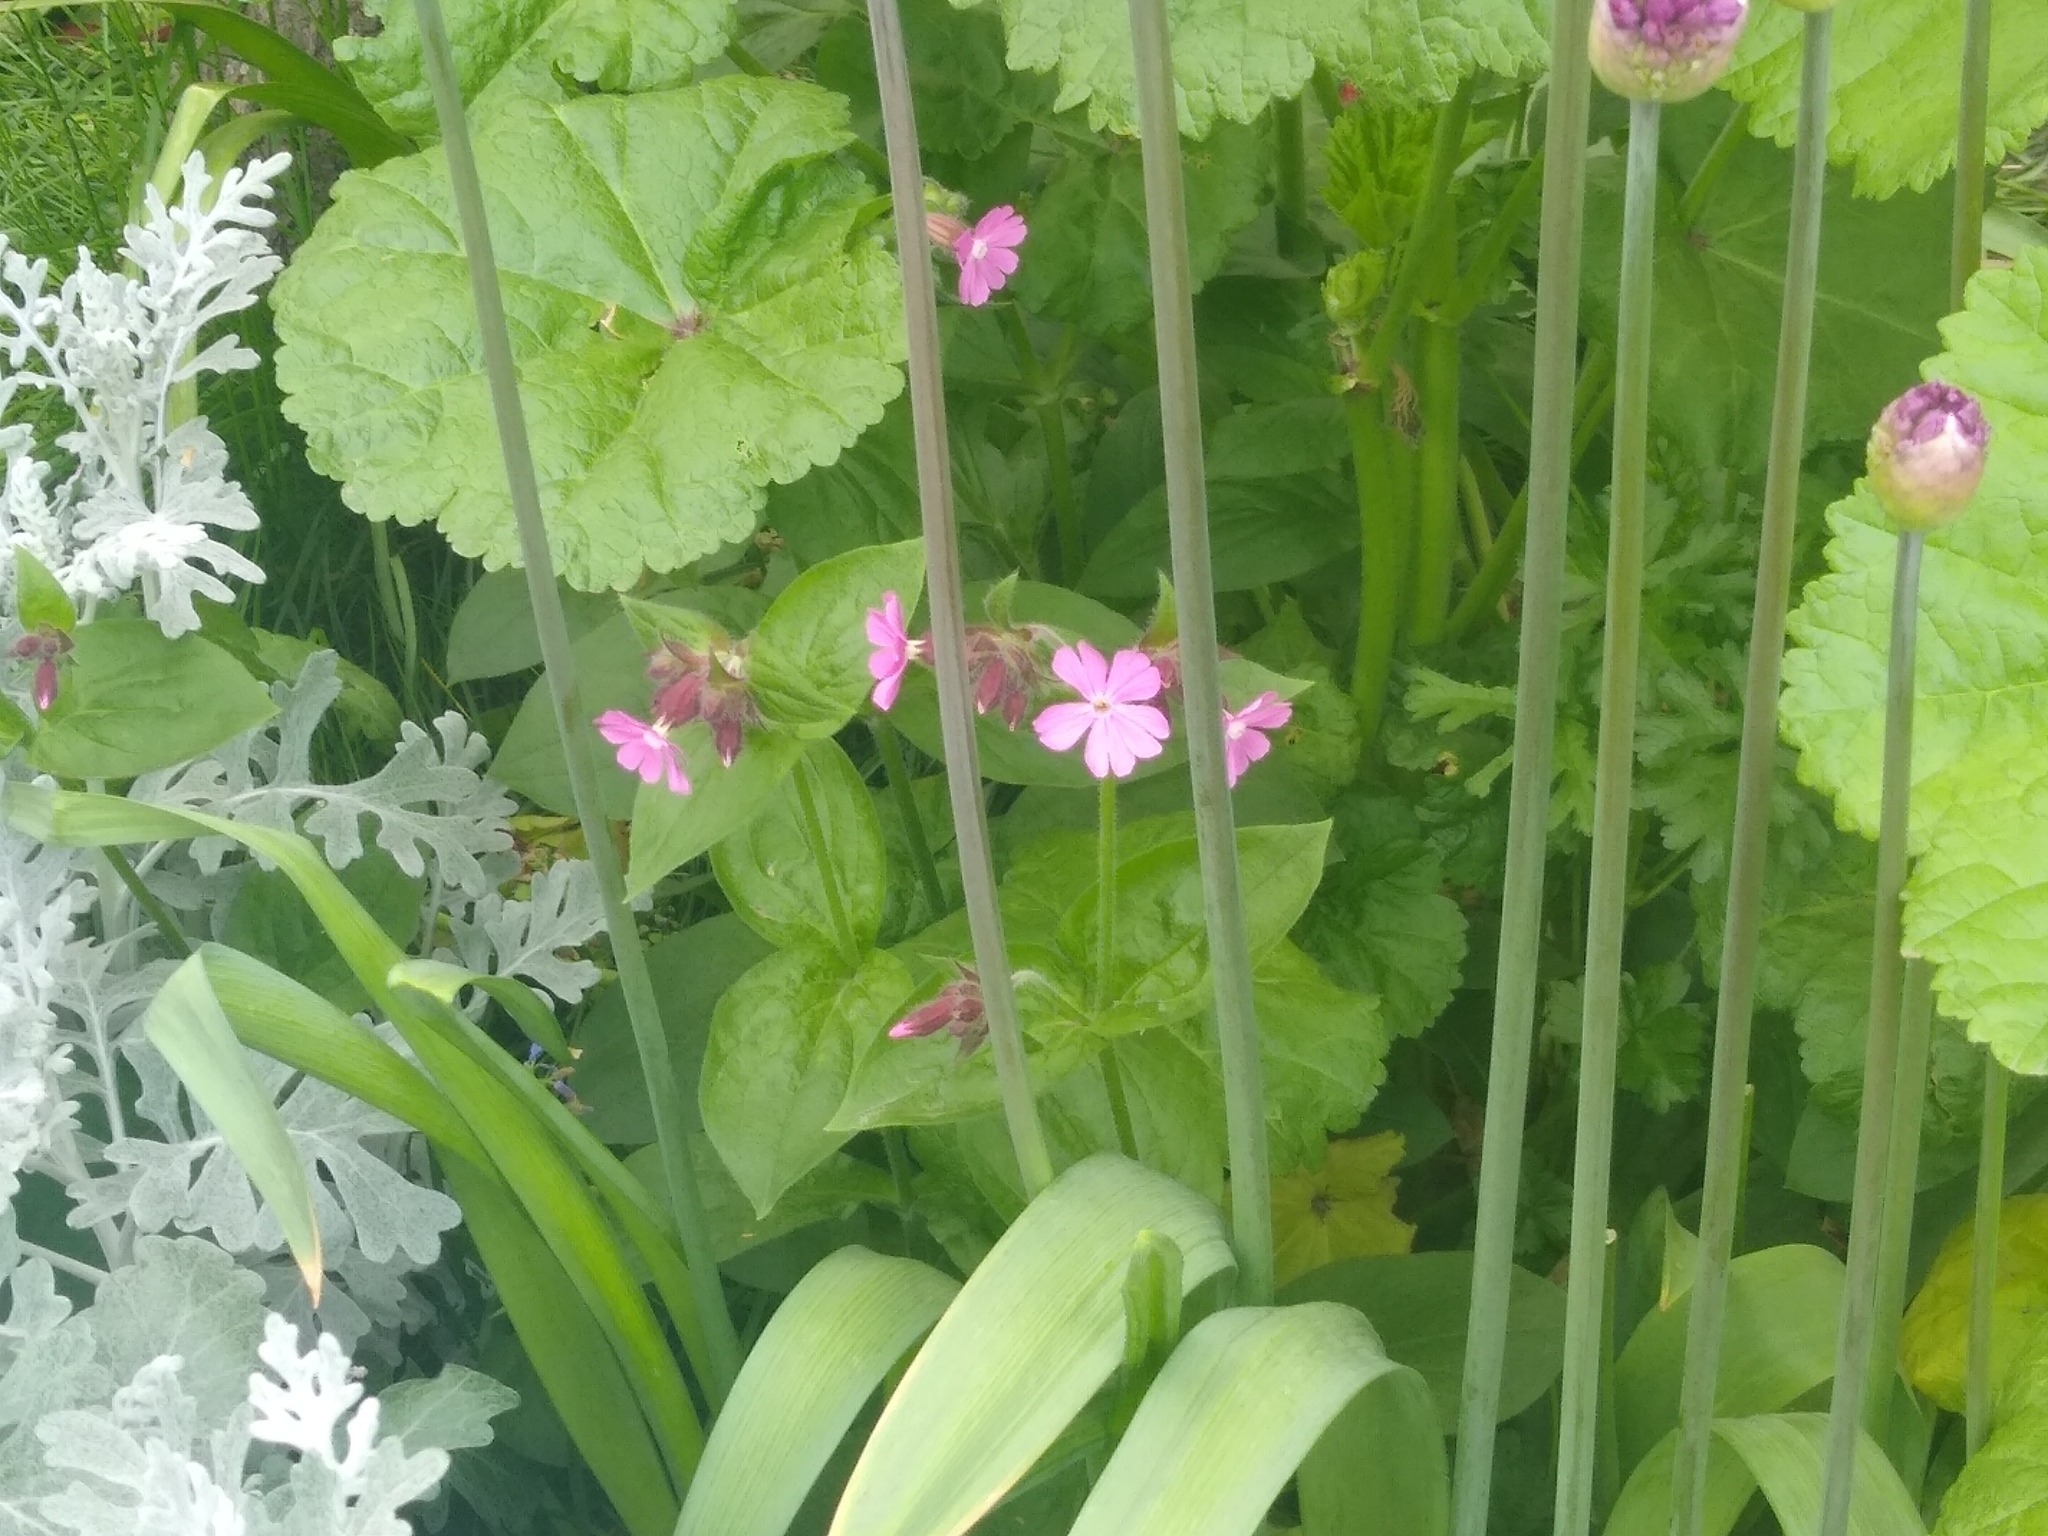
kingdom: Plantae
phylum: Tracheophyta
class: Magnoliopsida
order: Caryophyllales
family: Caryophyllaceae
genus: Silene
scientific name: Silene dioica
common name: Red campion
